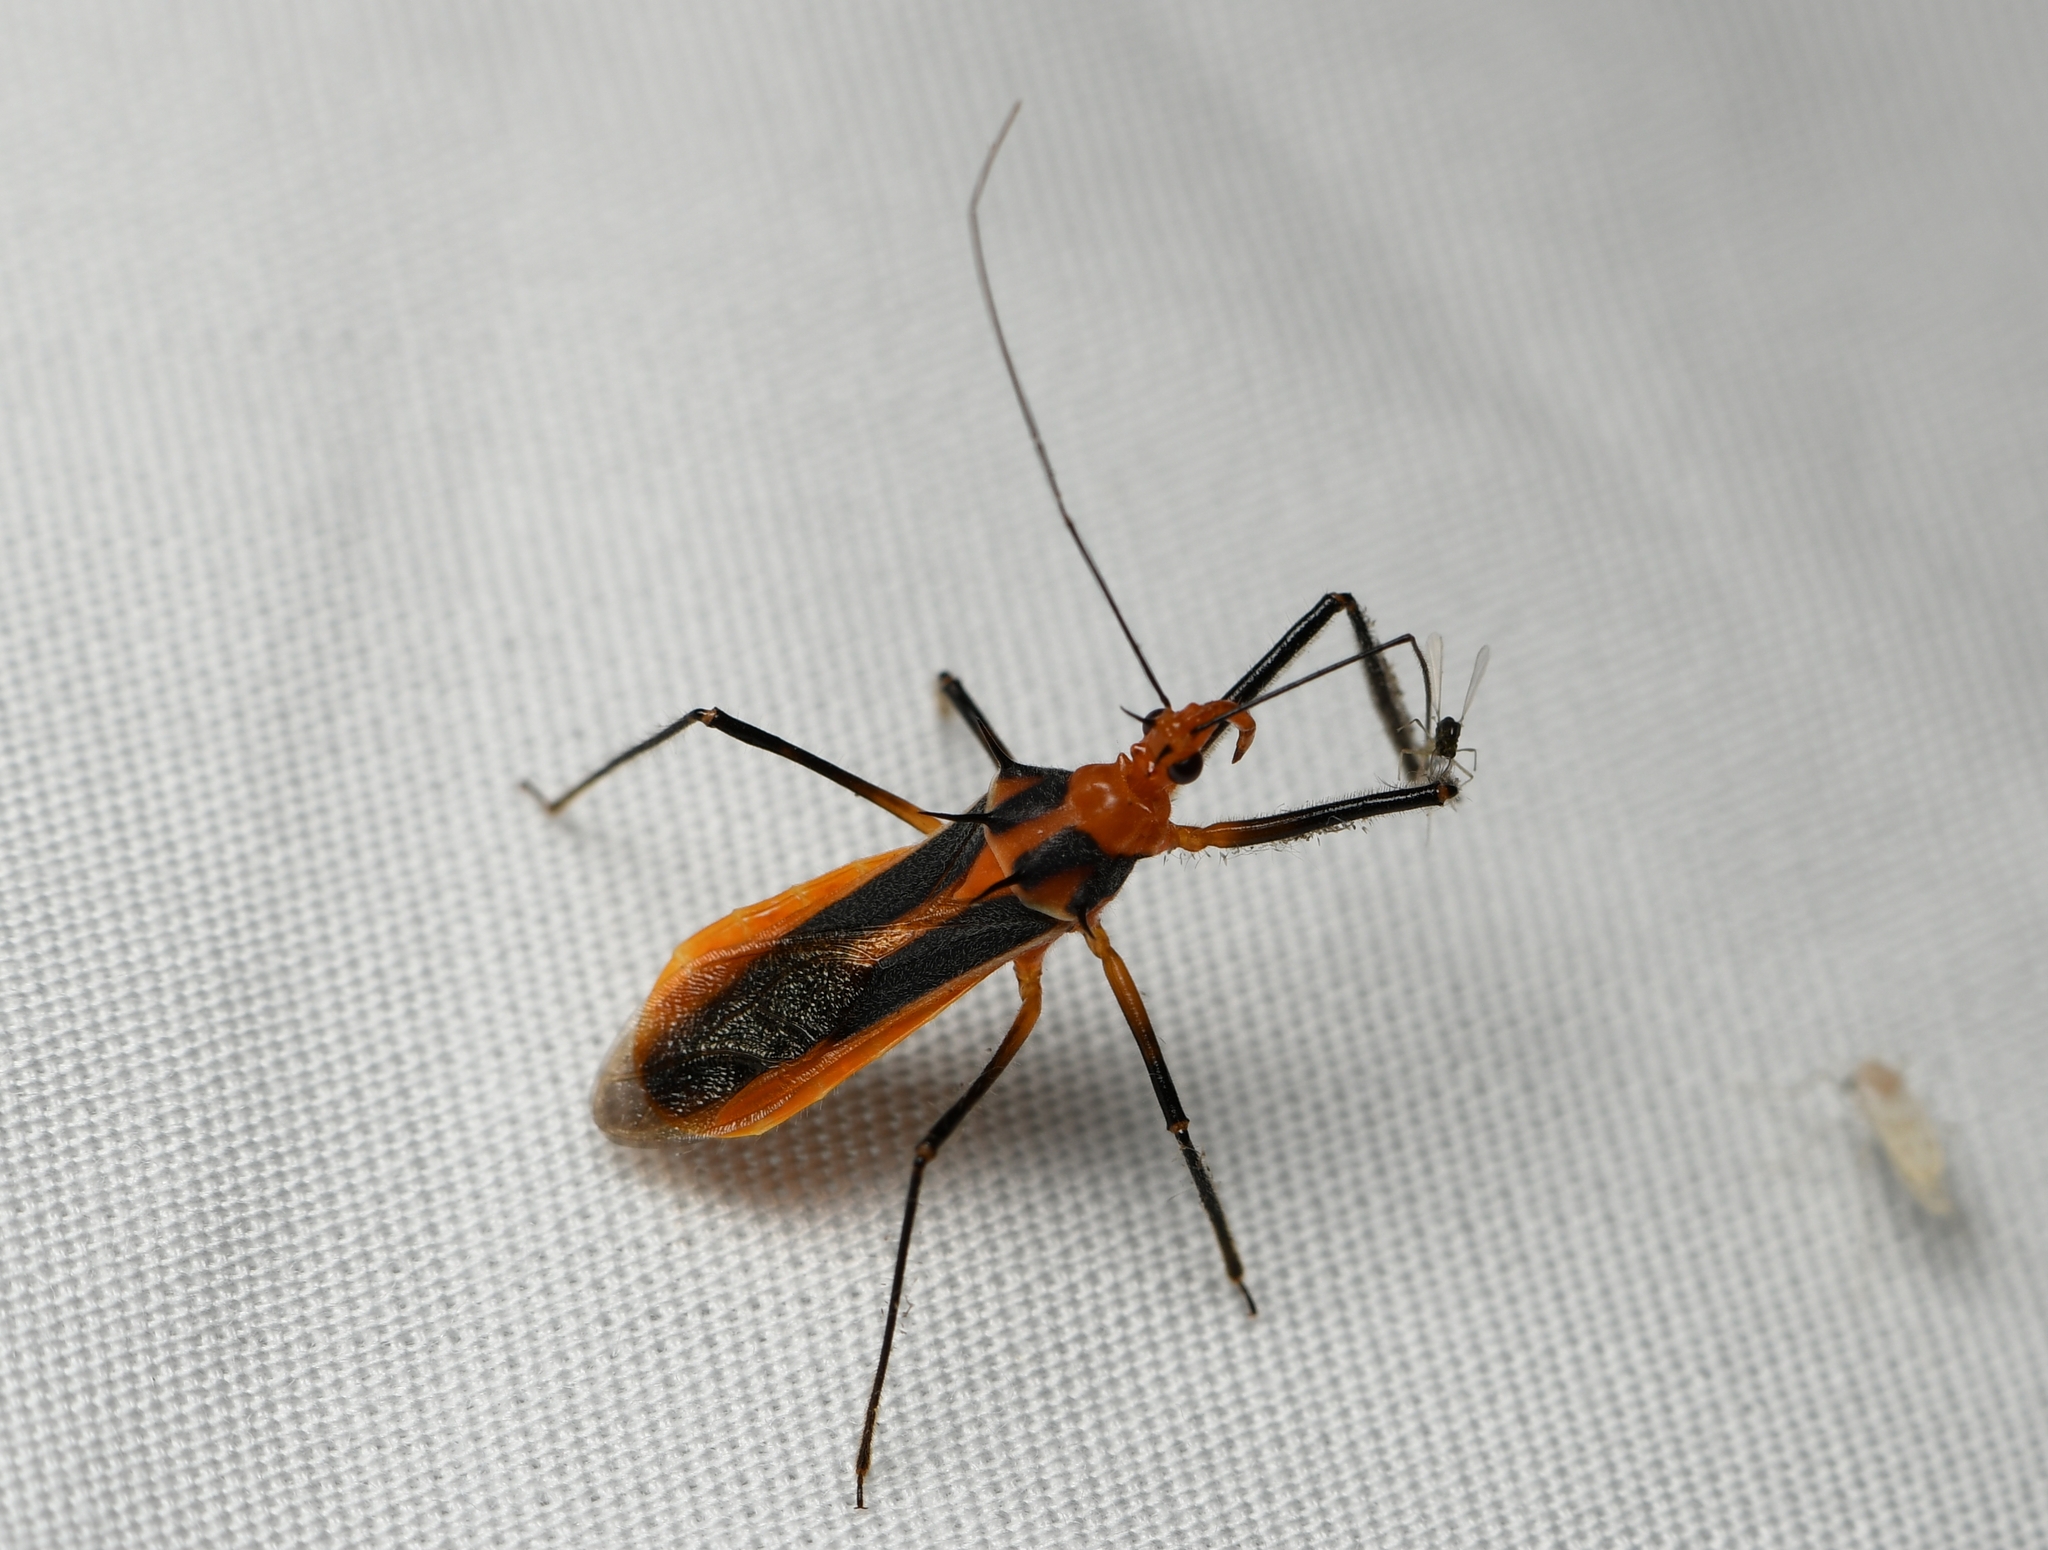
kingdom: Animalia
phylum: Arthropoda
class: Insecta
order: Hemiptera
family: Reduviidae
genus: Repipta
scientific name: Repipta taurus
